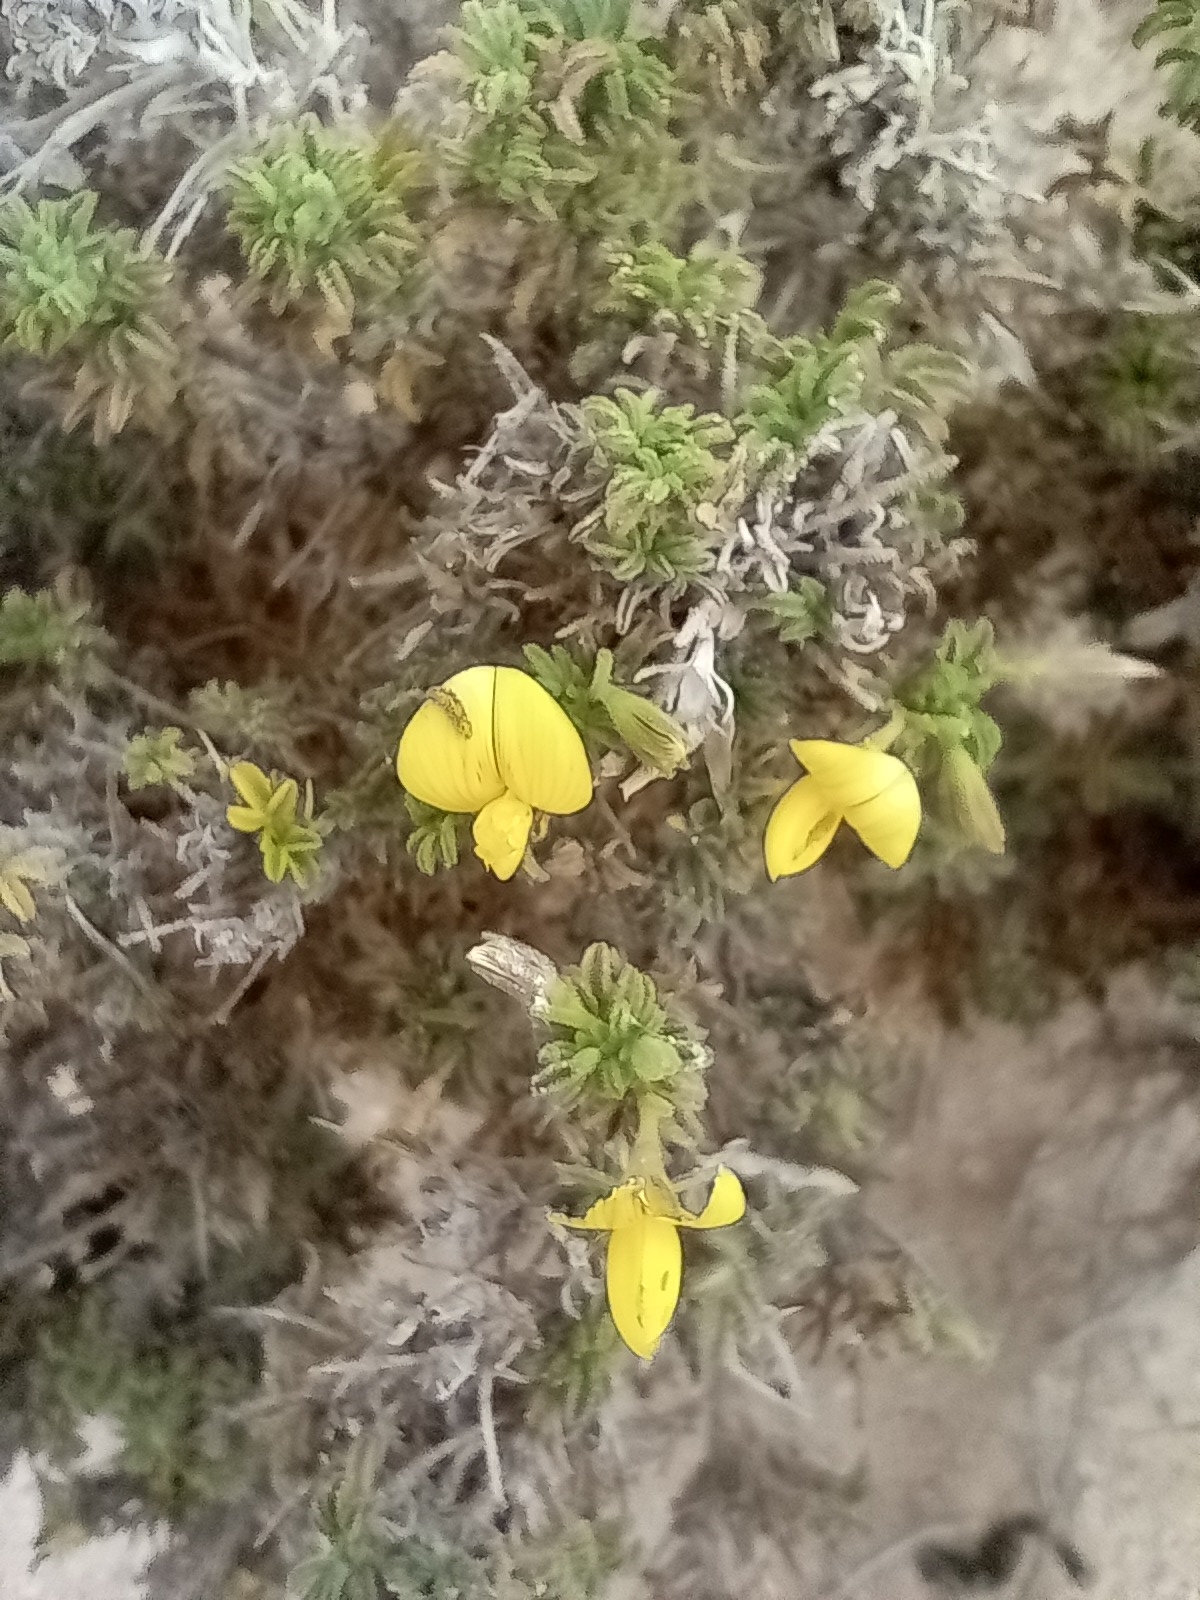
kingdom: Plantae
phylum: Tracheophyta
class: Magnoliopsida
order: Fabales
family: Fabaceae
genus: Ononis
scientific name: Ononis natrix
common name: Yellow restharrow
